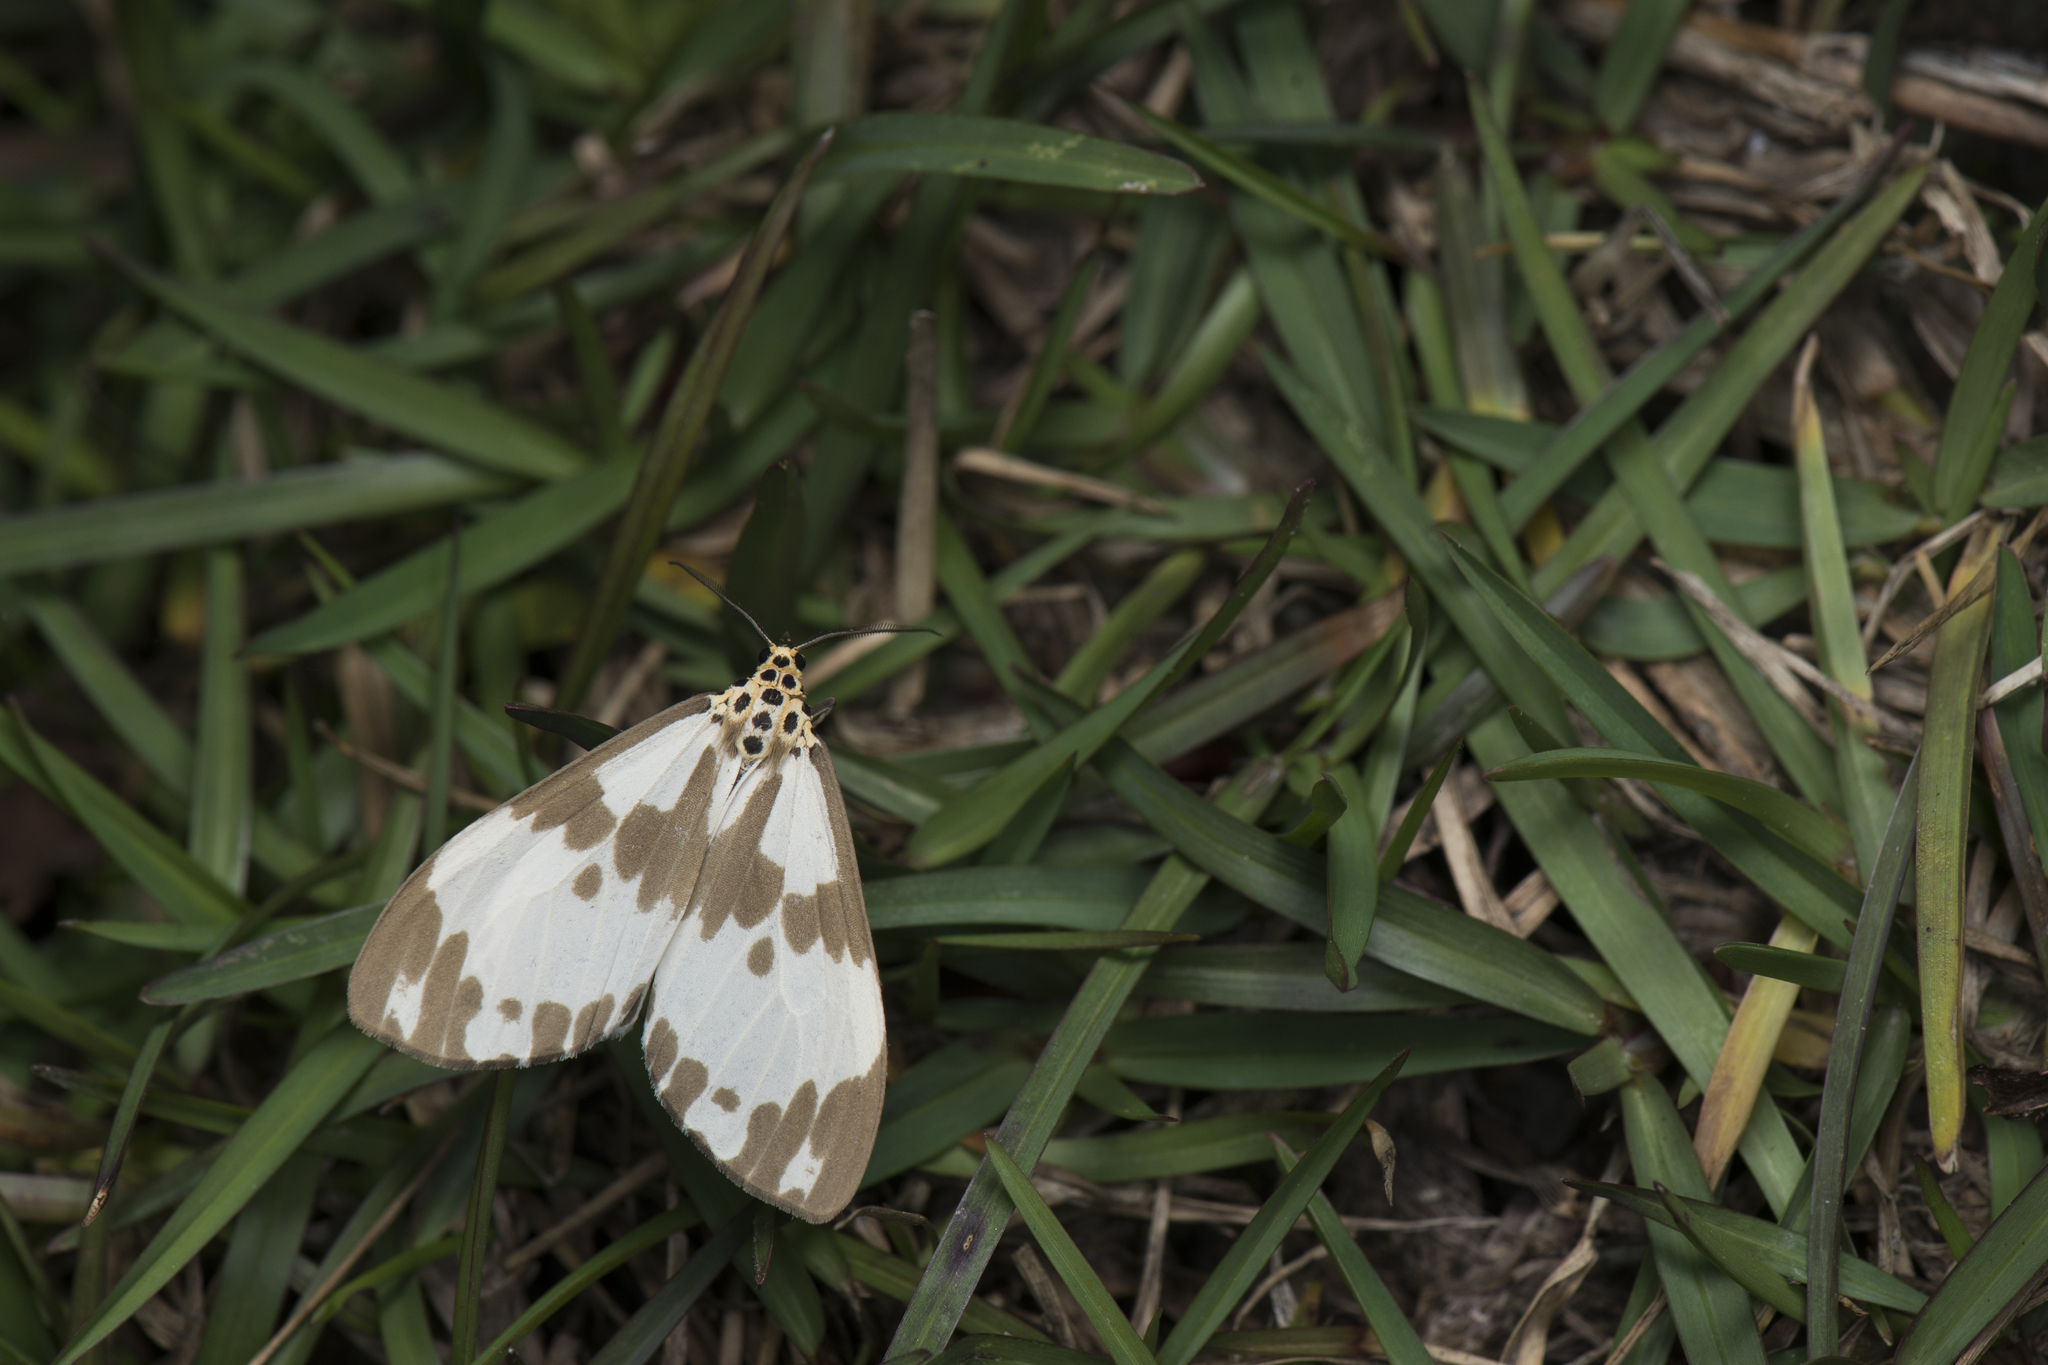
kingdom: Animalia
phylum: Arthropoda
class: Insecta
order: Lepidoptera
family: Erebidae
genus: Nyctemera
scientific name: Nyctemera carissima
